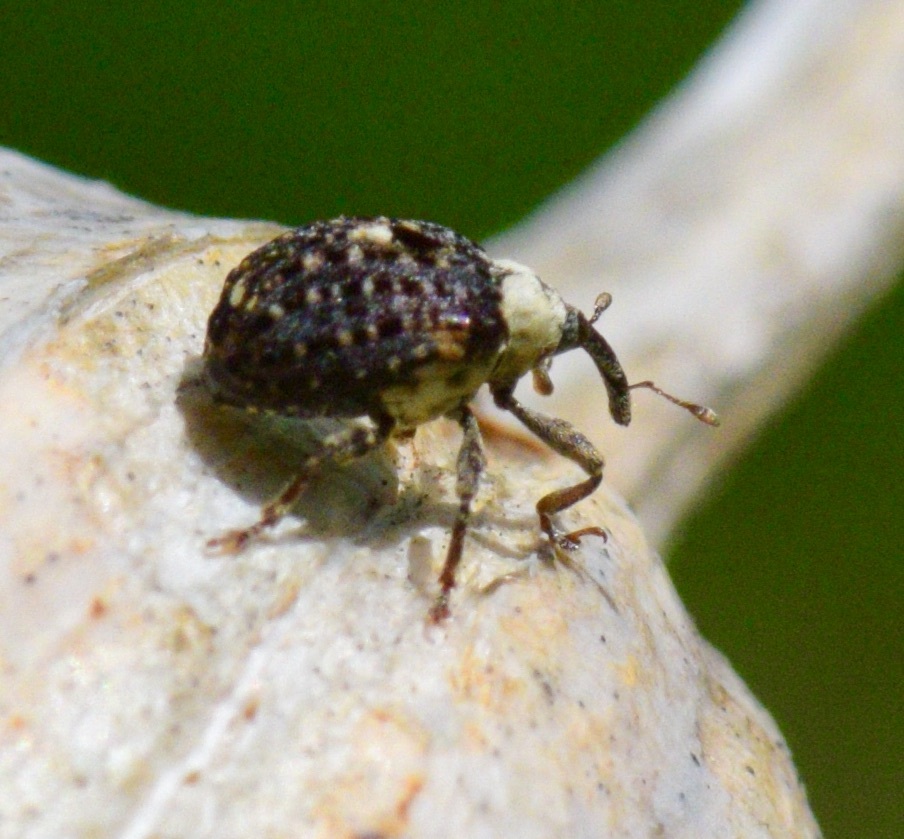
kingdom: Animalia
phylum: Arthropoda
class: Insecta
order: Coleoptera
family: Curculionidae
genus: Cionus
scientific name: Cionus scrophulariae
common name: Common figwort weevil
